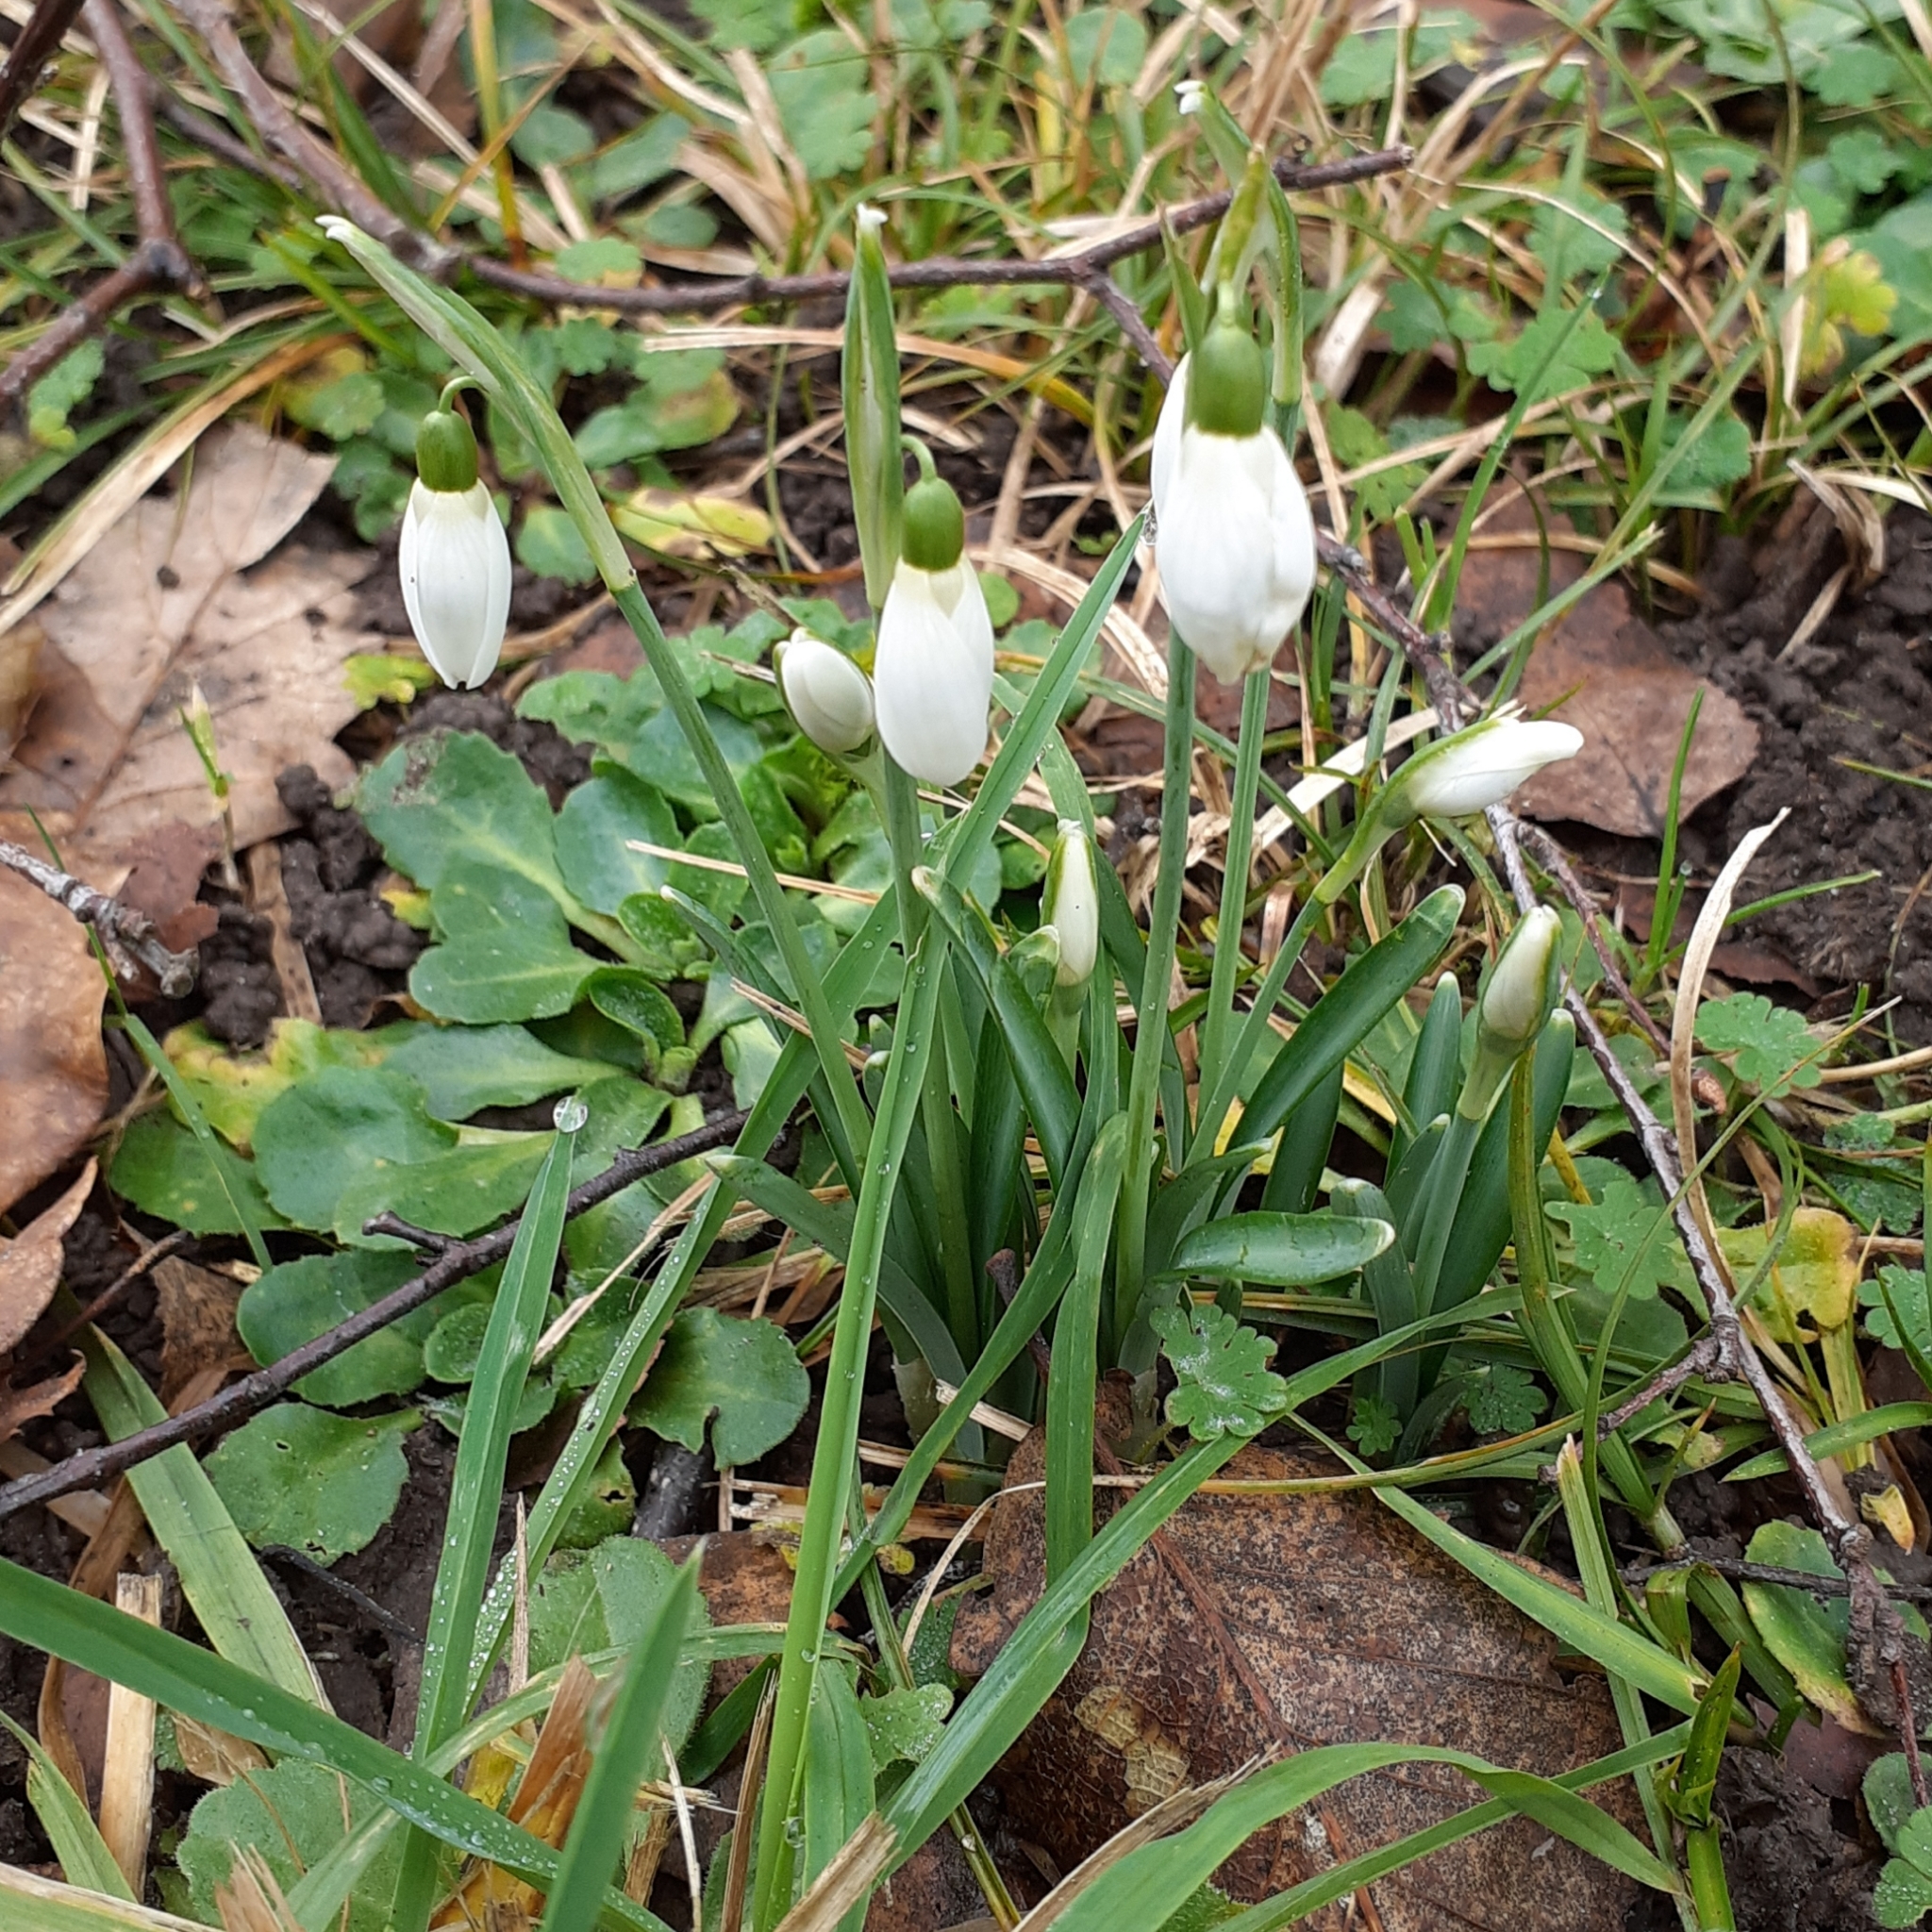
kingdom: Plantae
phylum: Tracheophyta
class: Liliopsida
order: Asparagales
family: Amaryllidaceae
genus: Galanthus
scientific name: Galanthus nivalis
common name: Snowdrop
